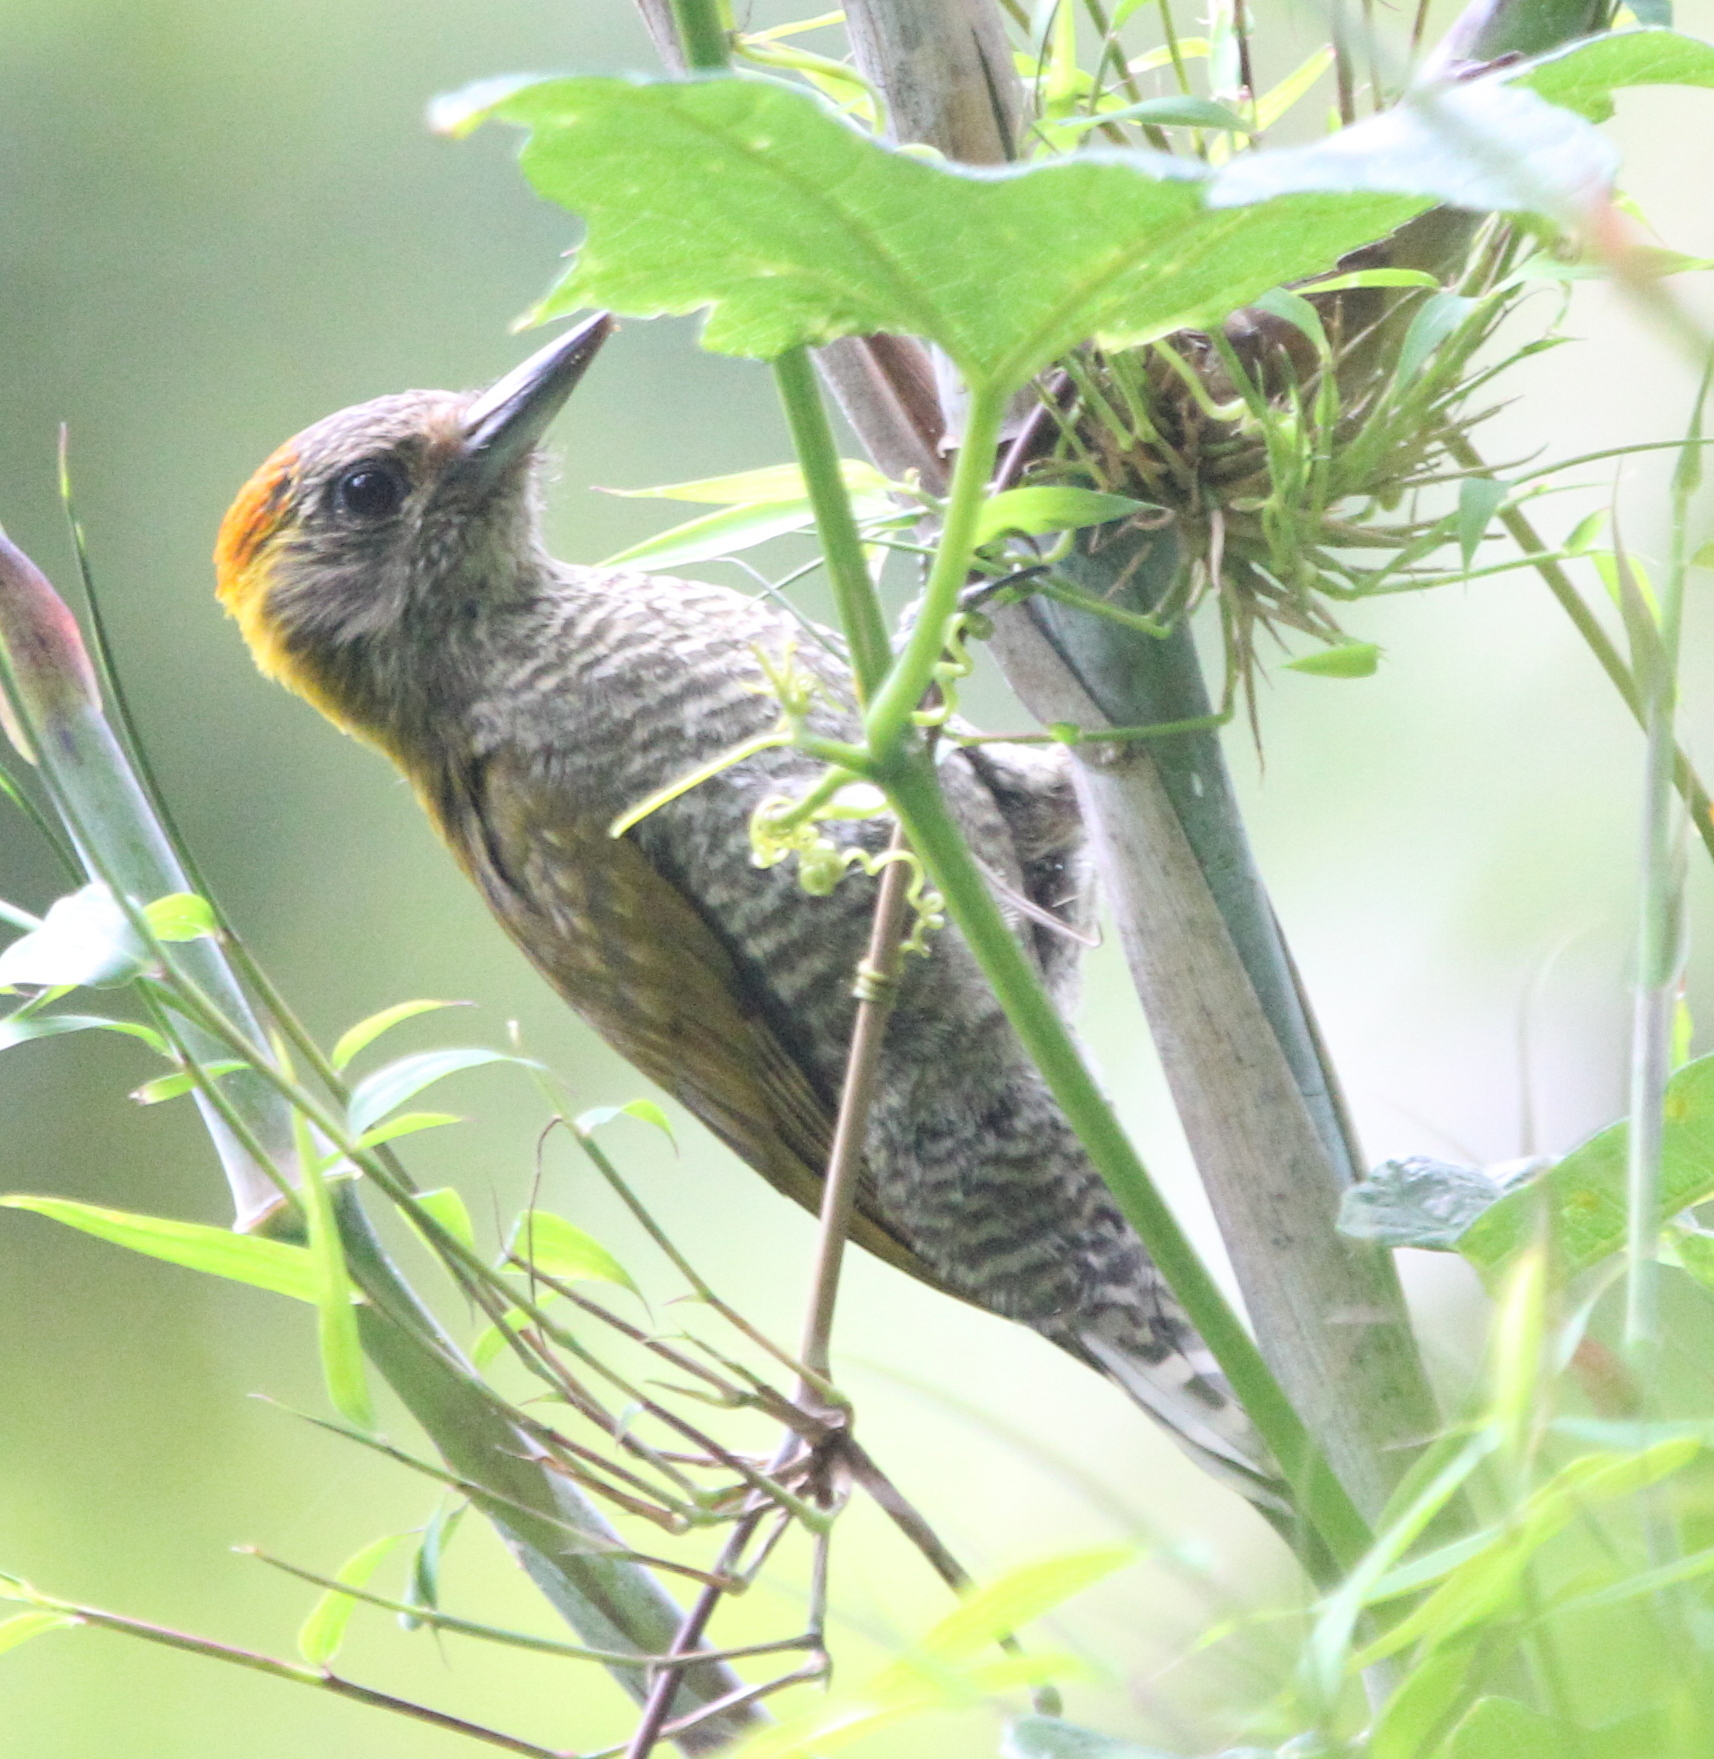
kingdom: Animalia
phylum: Chordata
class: Aves
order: Piciformes
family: Picidae
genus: Veniliornis
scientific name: Veniliornis maculifrons
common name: Yellow-eared woodpecker
